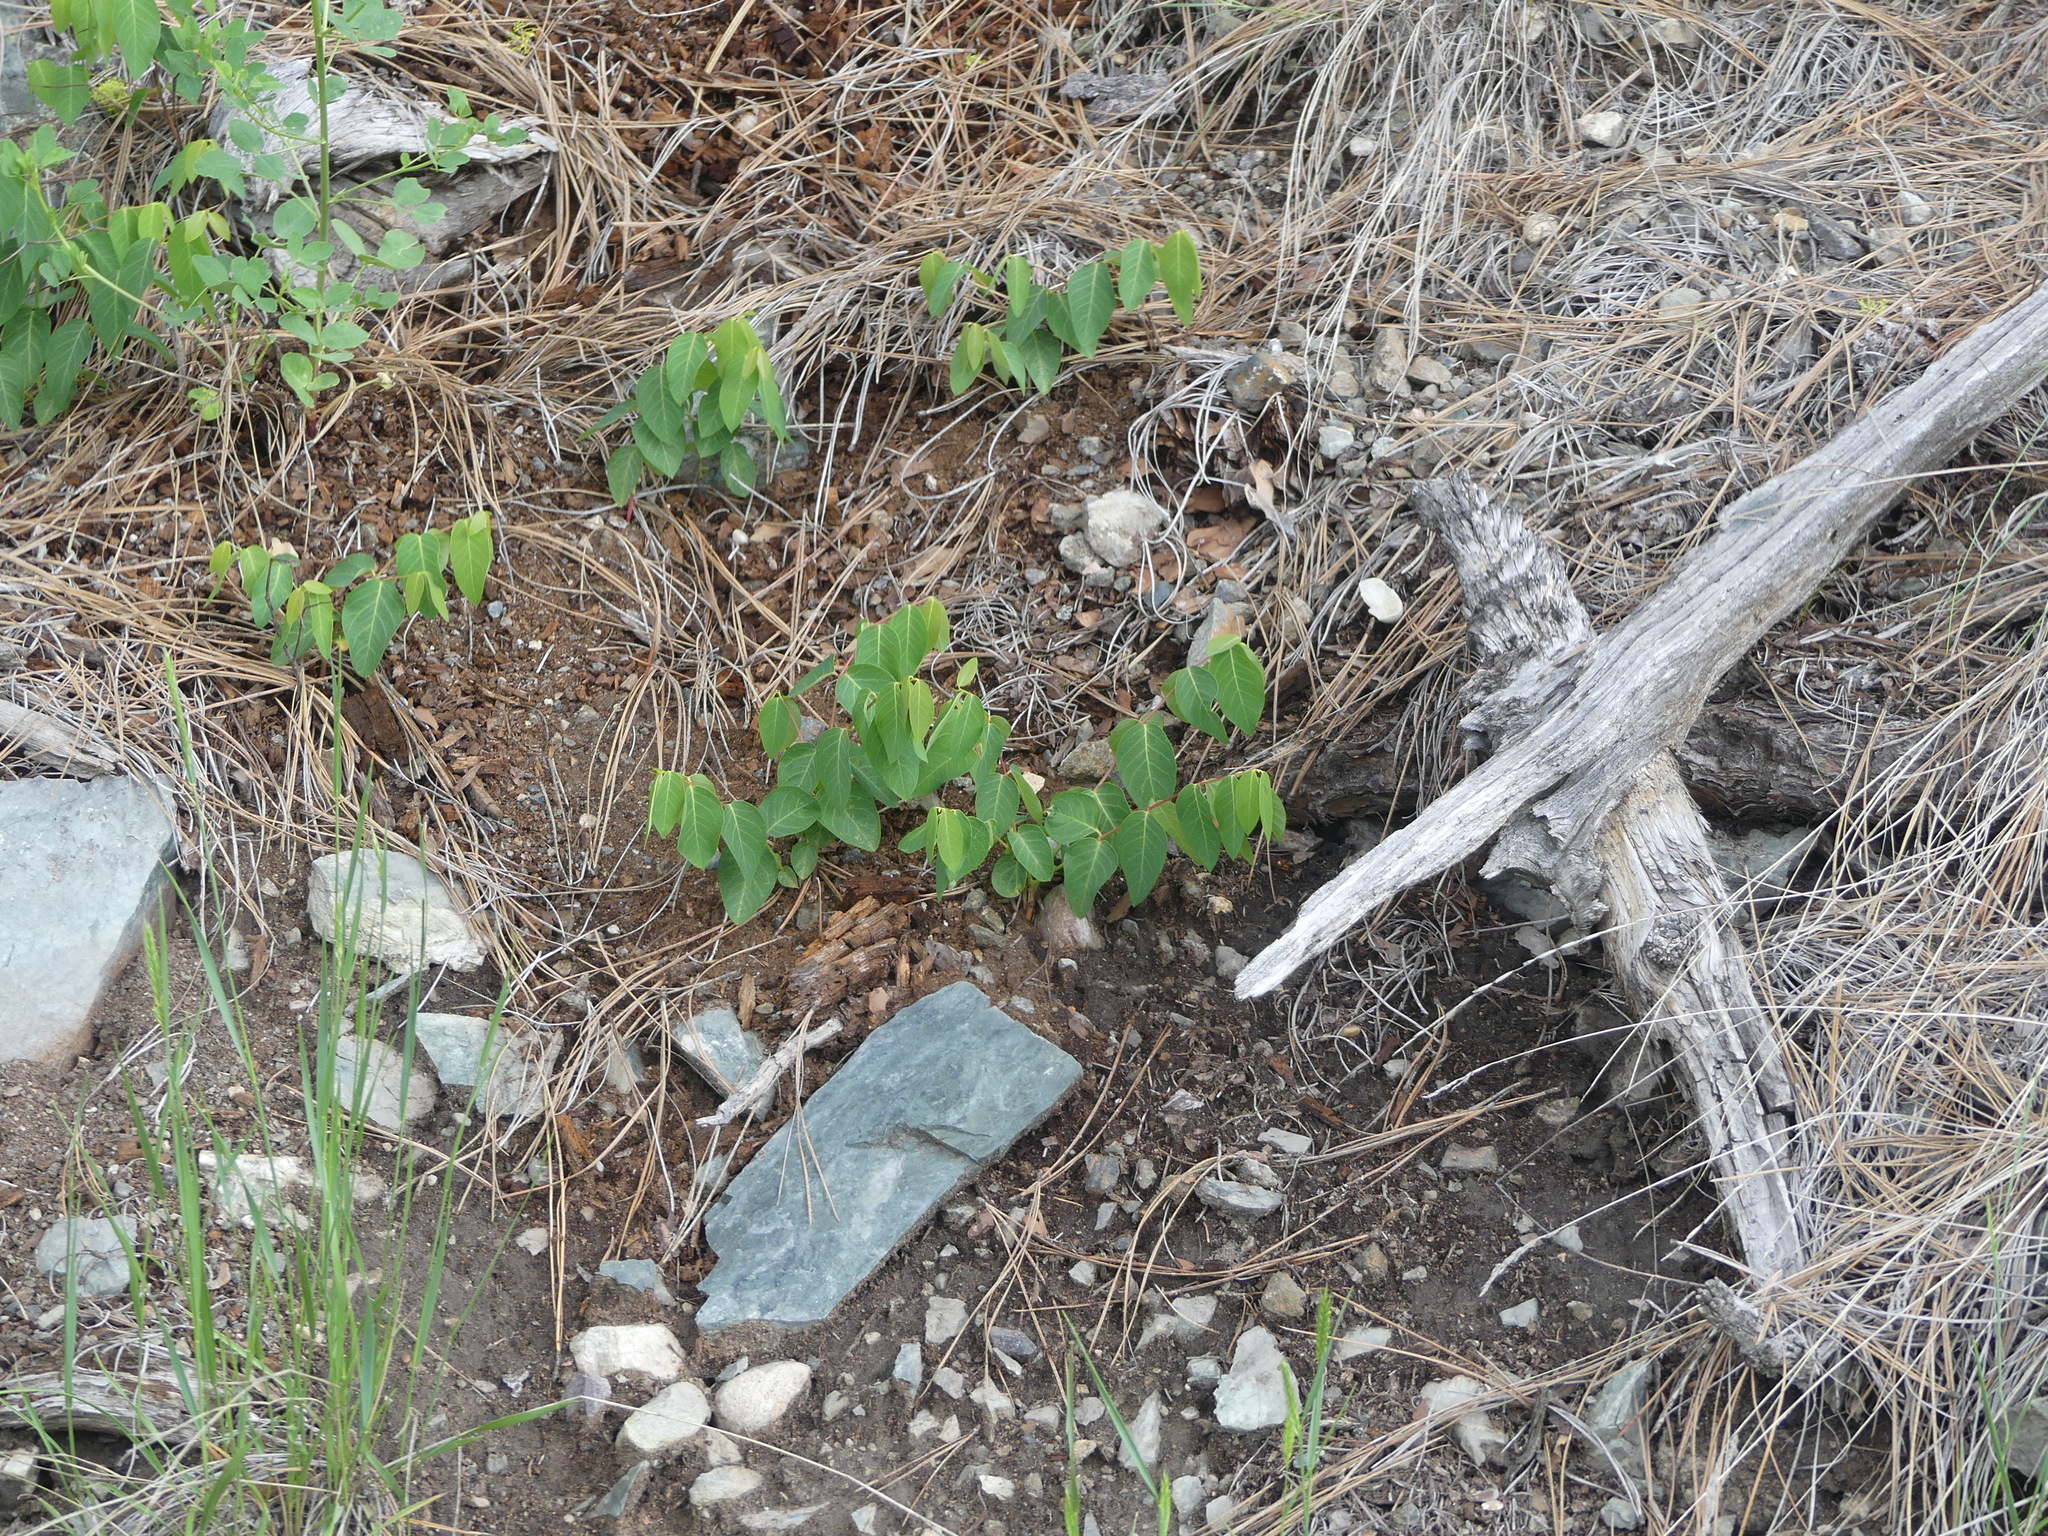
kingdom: Plantae
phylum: Tracheophyta
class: Magnoliopsida
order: Gentianales
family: Apocynaceae
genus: Apocynum
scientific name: Apocynum androsaemifolium
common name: Spreading dogbane
